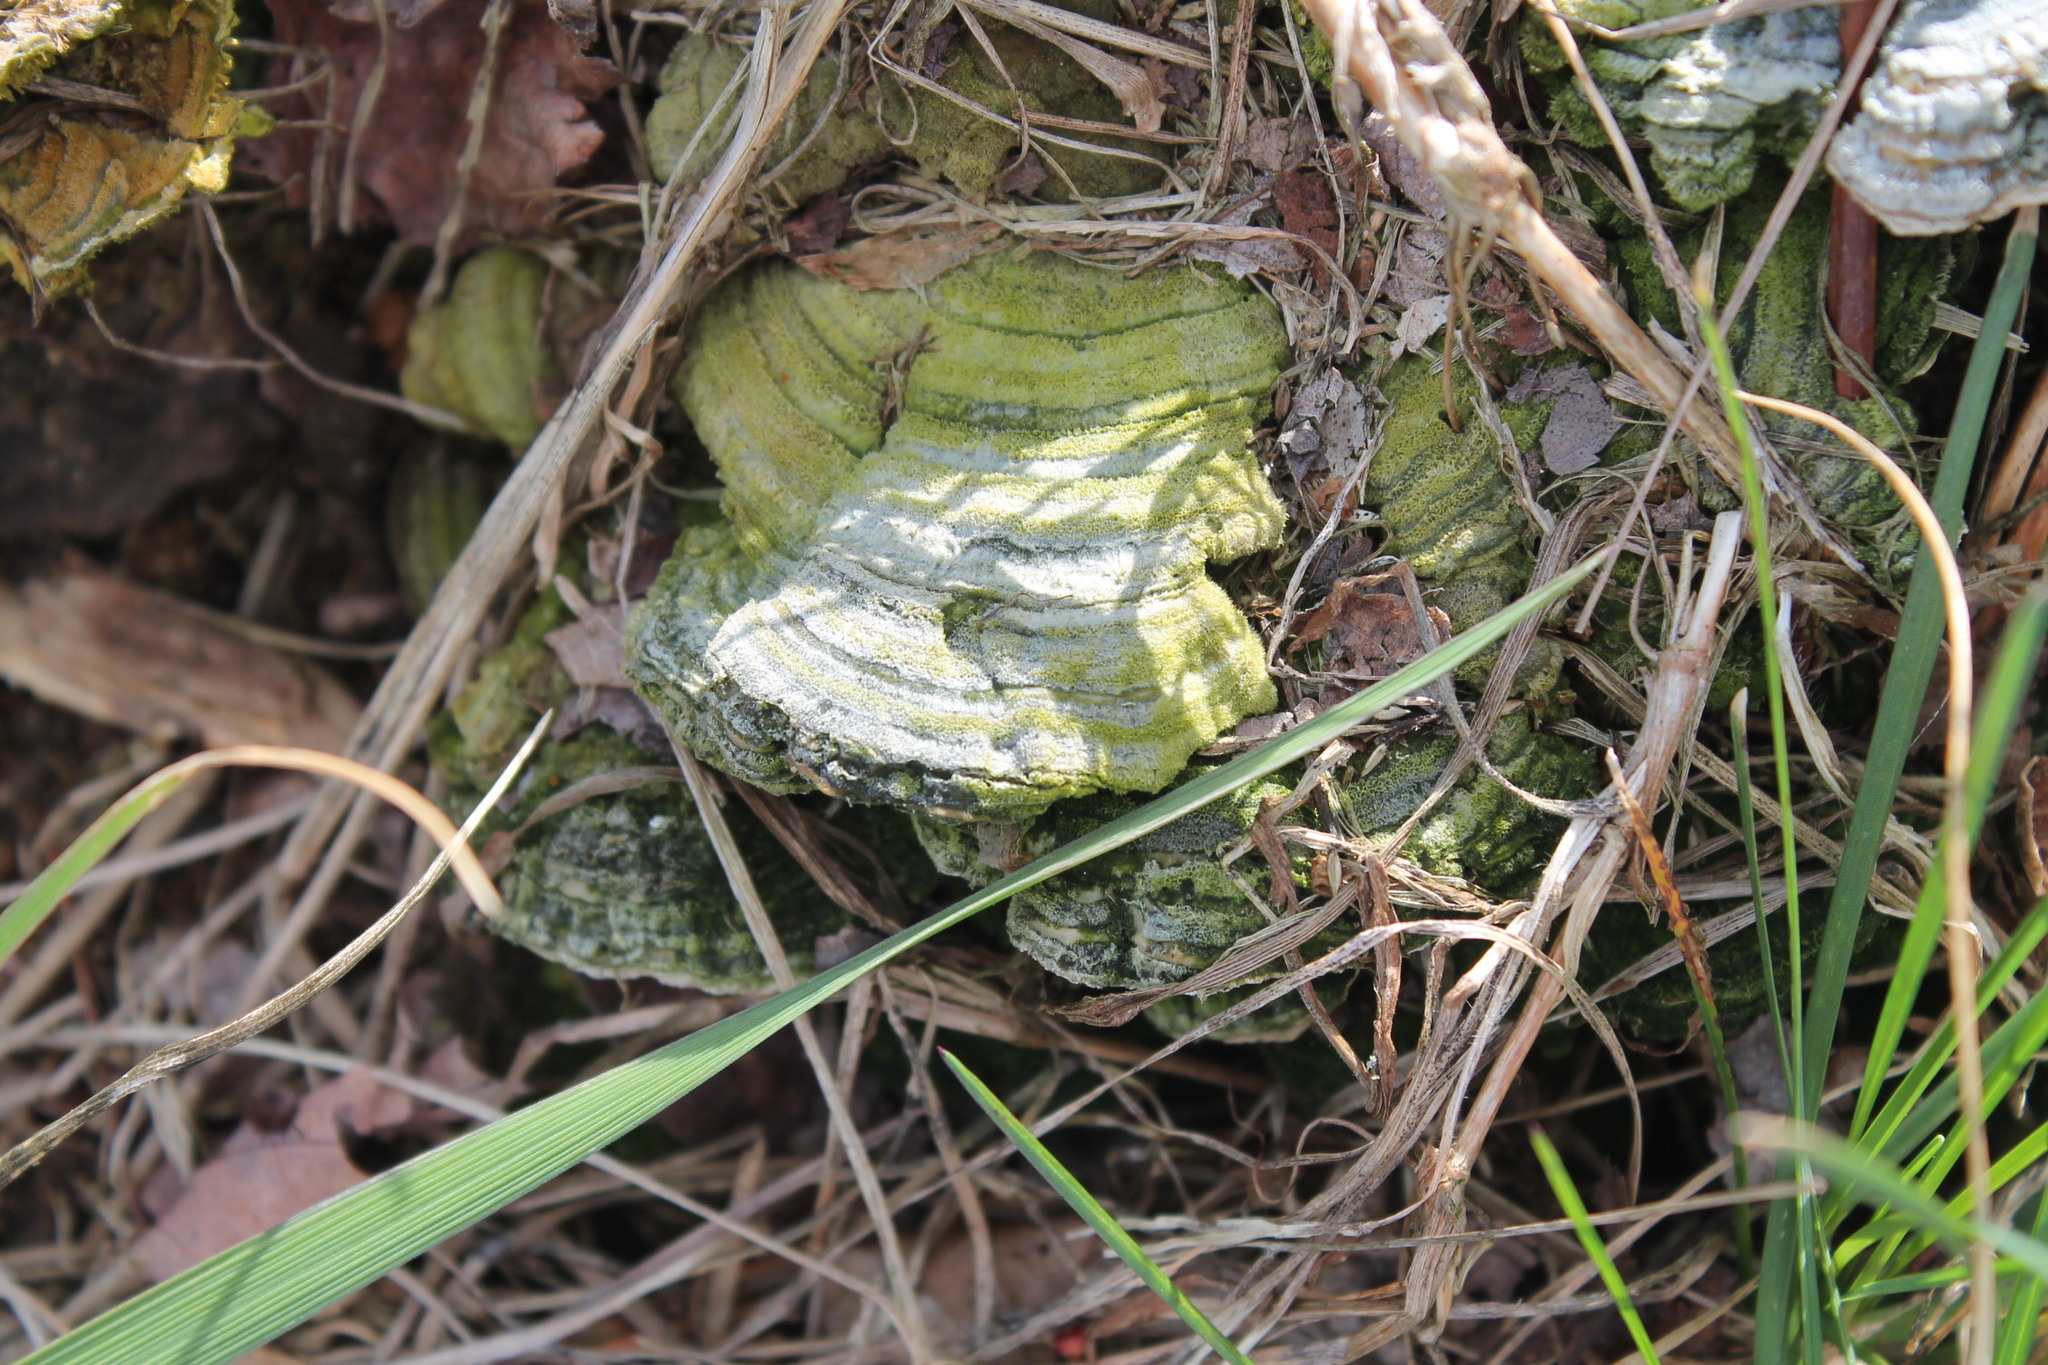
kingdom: Fungi
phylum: Basidiomycota
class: Agaricomycetes
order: Polyporales
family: Polyporaceae
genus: Lenzites
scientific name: Lenzites betulinus
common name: Birch mazegill
